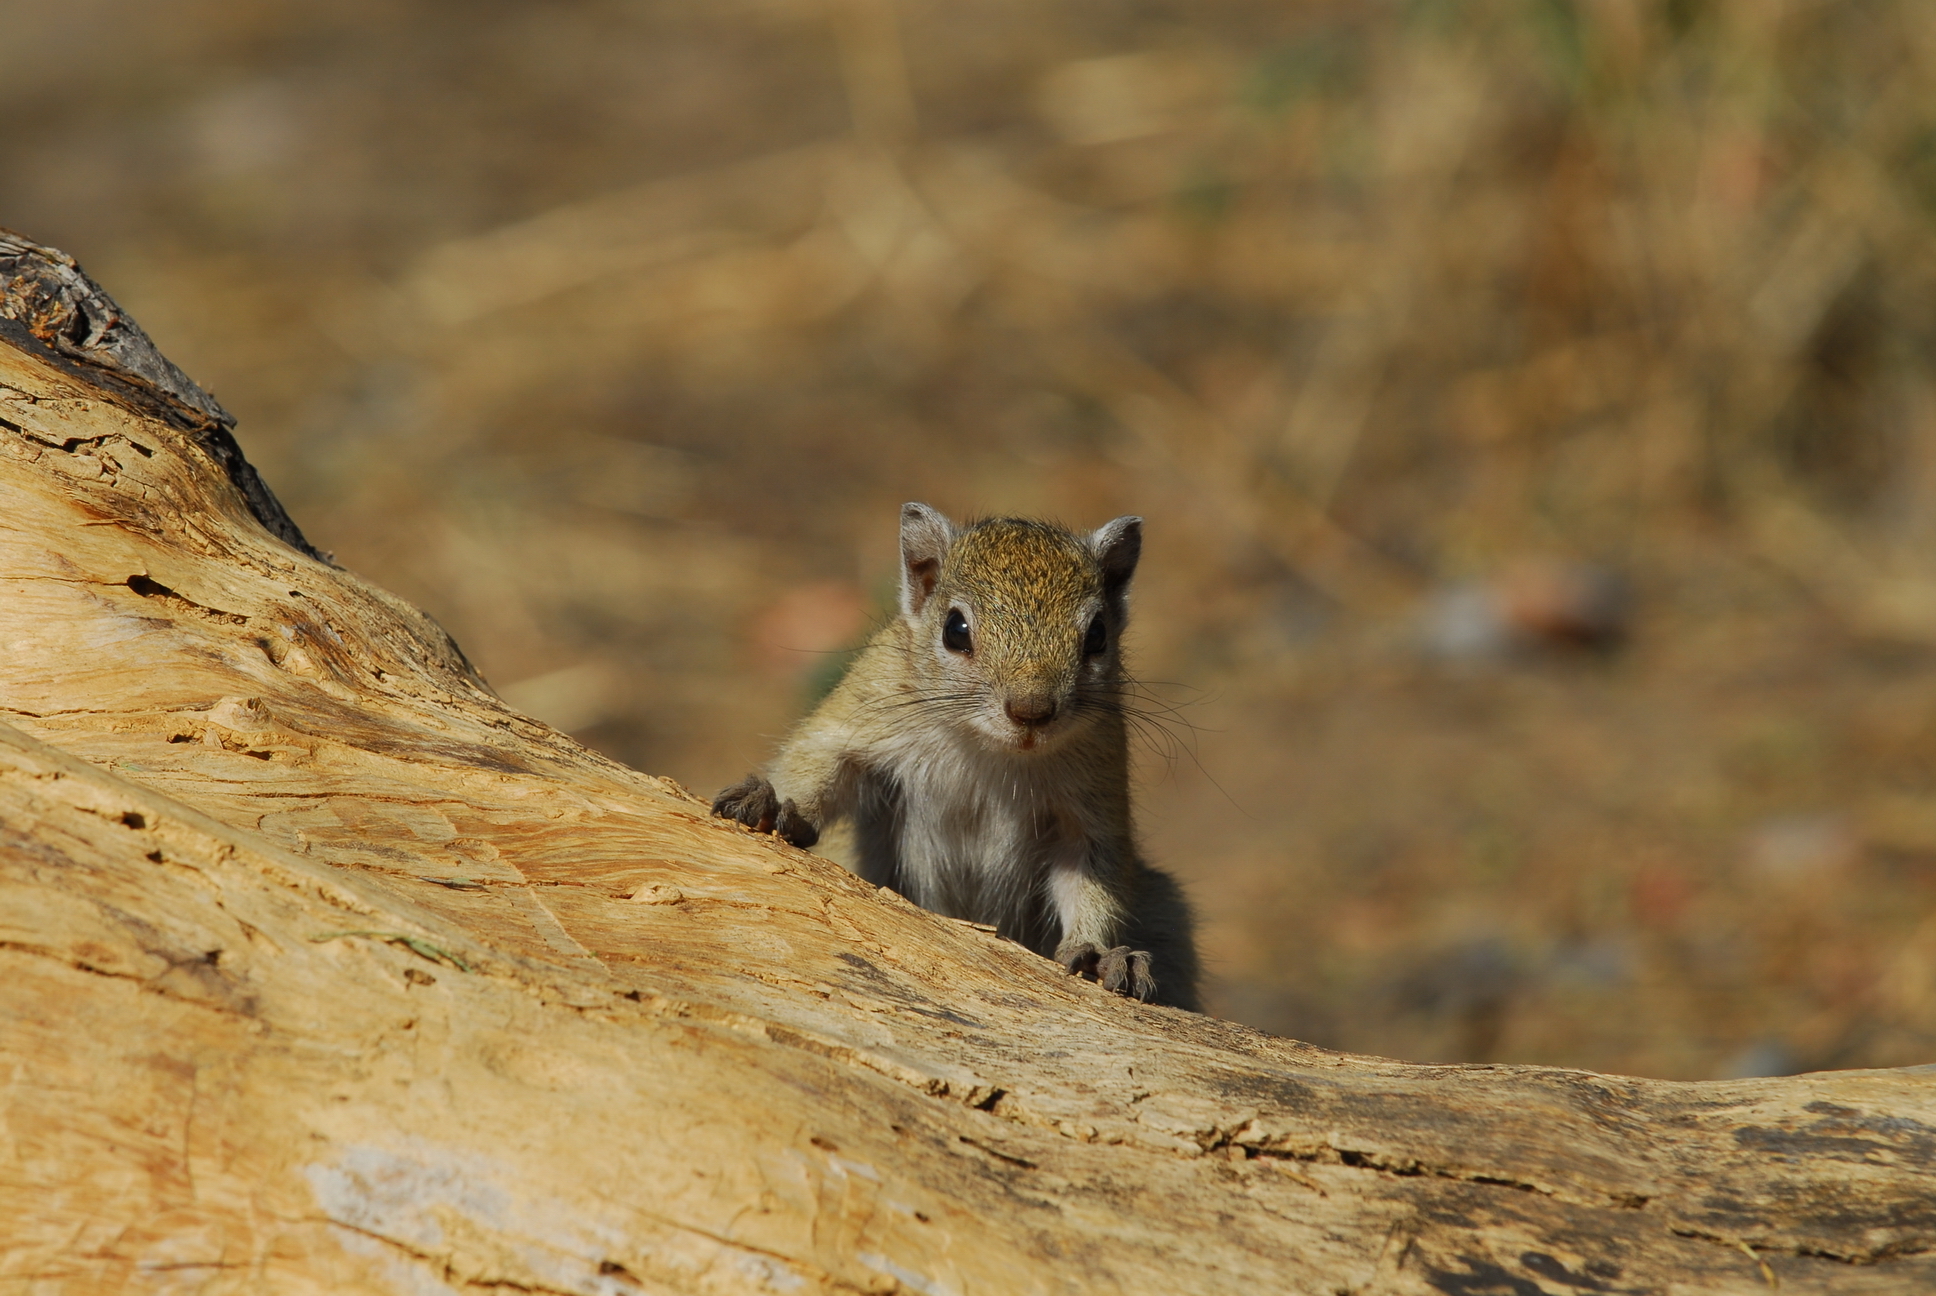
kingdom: Animalia
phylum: Chordata
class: Mammalia
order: Rodentia
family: Sciuridae
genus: Paraxerus
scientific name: Paraxerus cepapi
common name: Smith's bush squirrel
